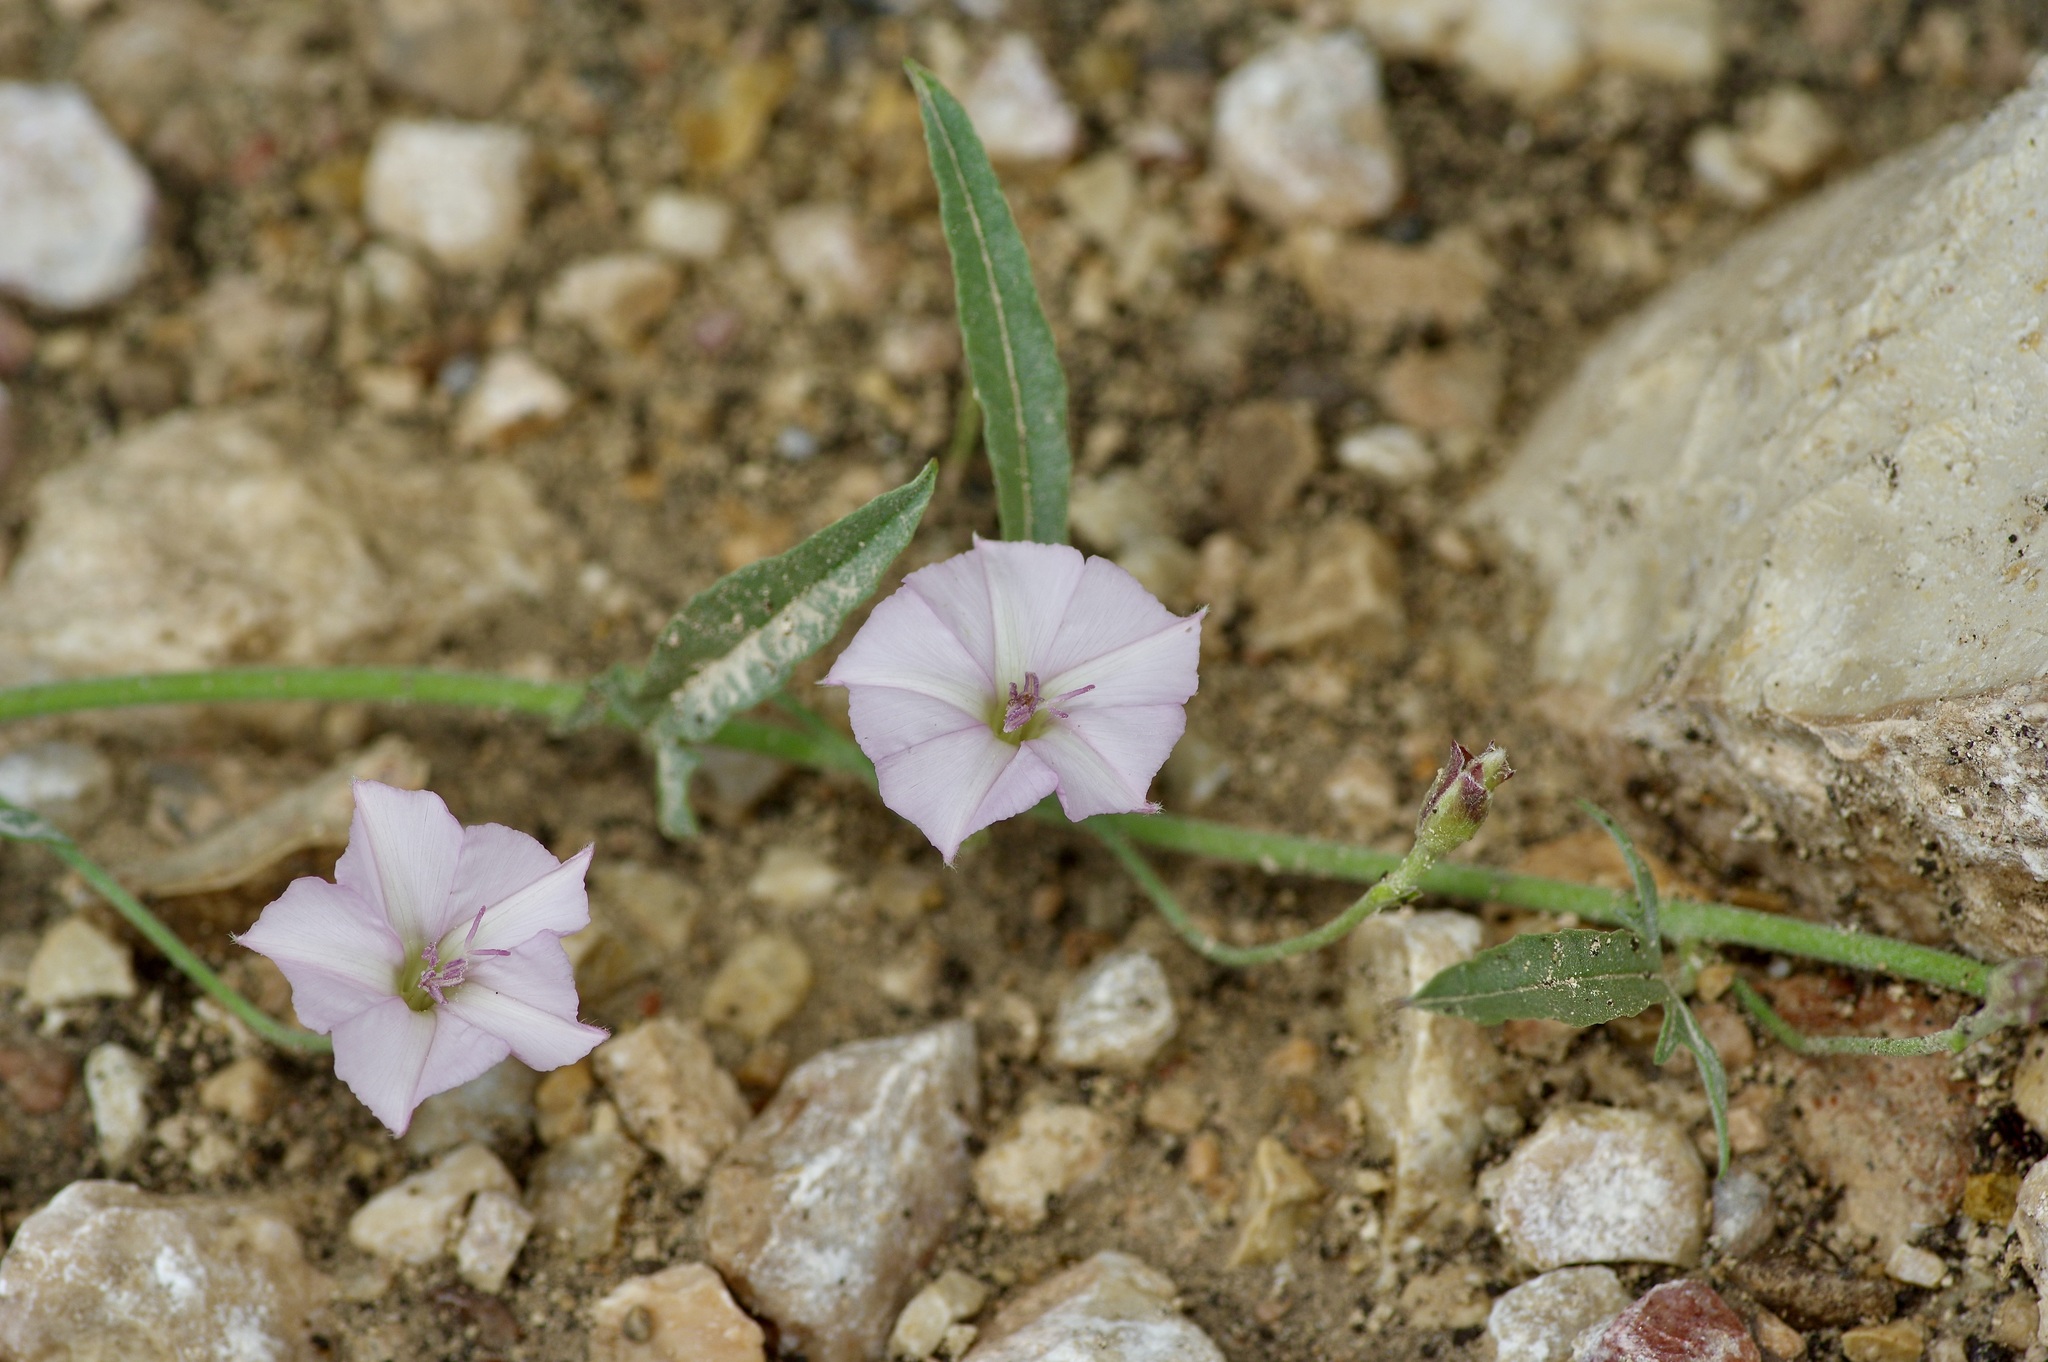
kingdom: Plantae
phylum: Tracheophyta
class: Magnoliopsida
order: Solanales
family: Convolvulaceae
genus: Convolvulus
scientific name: Convolvulus equitans
